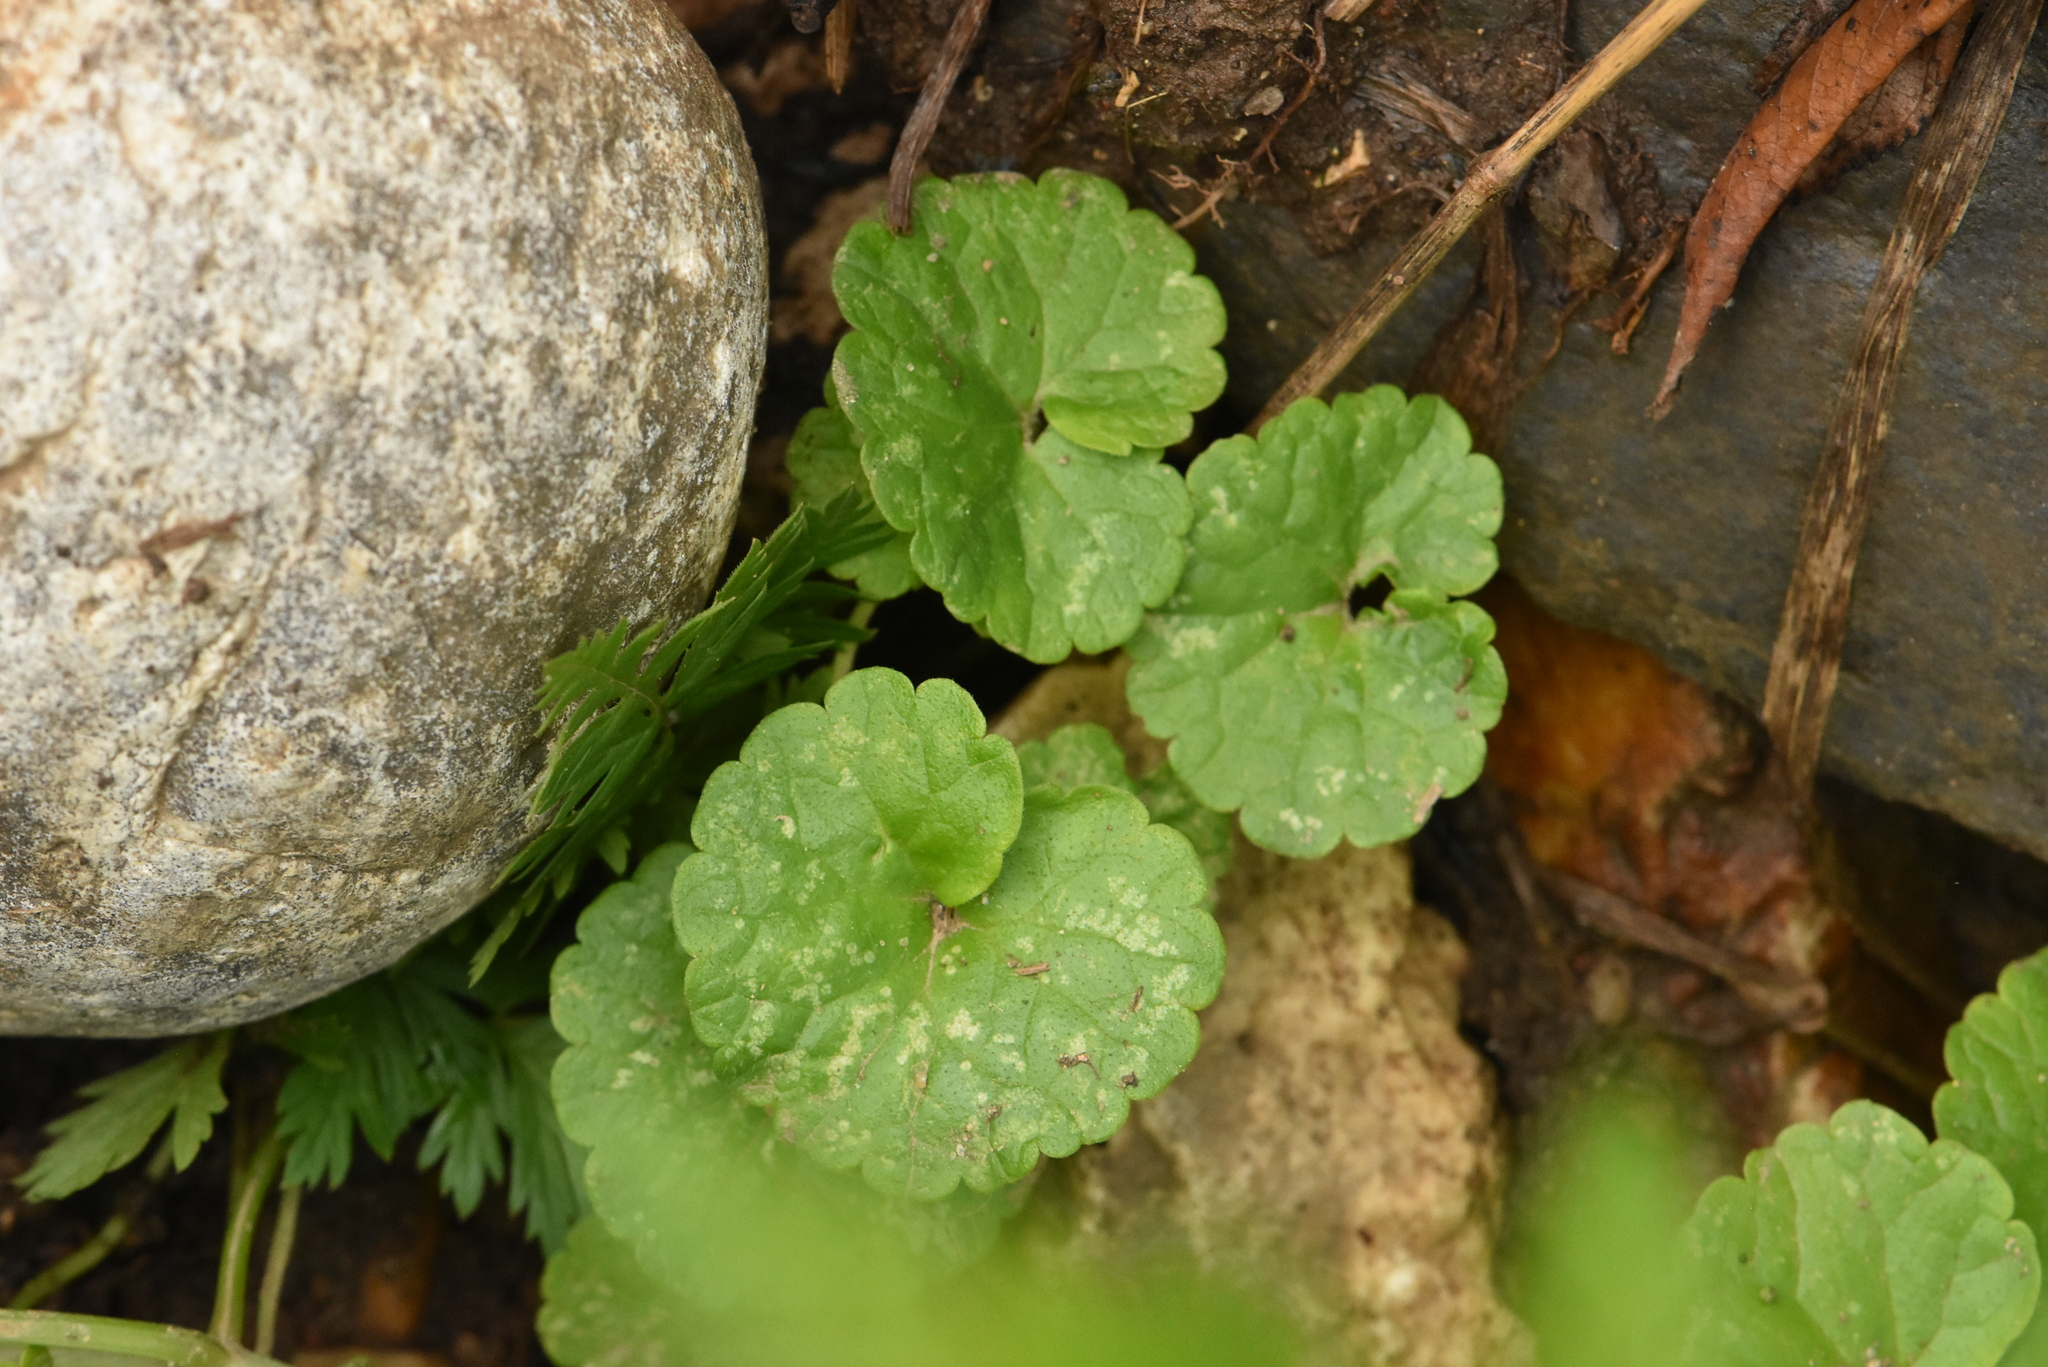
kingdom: Plantae
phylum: Tracheophyta
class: Magnoliopsida
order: Lamiales
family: Lamiaceae
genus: Glechoma
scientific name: Glechoma hederacea
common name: Ground ivy
